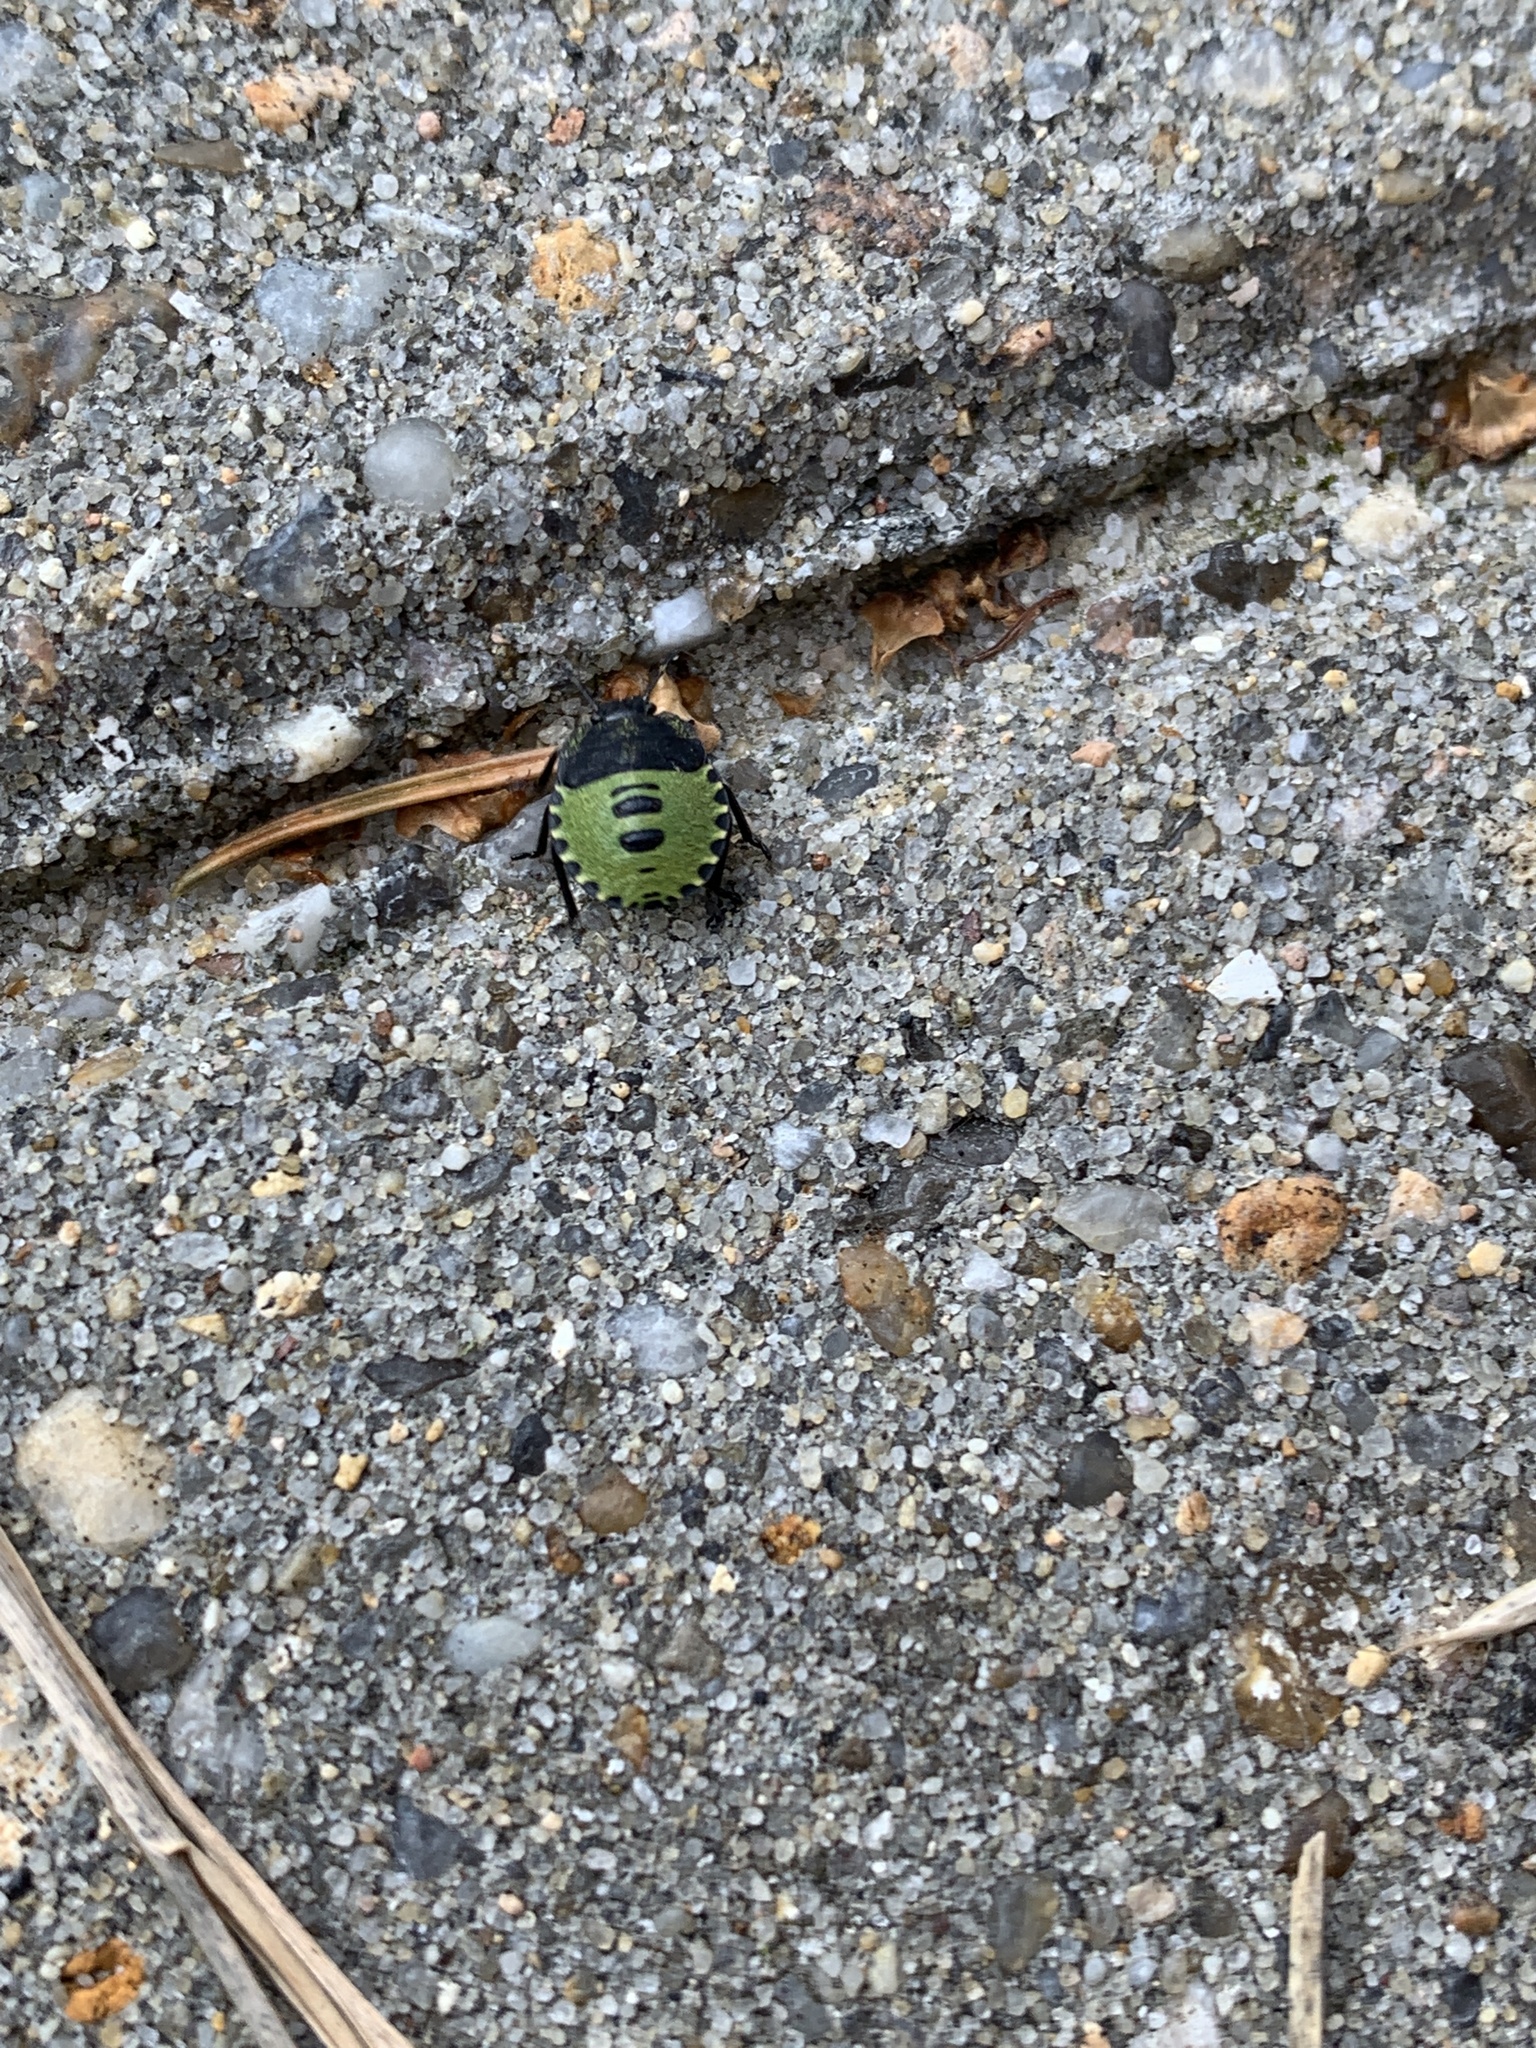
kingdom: Animalia
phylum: Arthropoda
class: Insecta
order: Hemiptera
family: Pentatomidae
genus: Palomena
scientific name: Palomena prasina
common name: Green shieldbug
